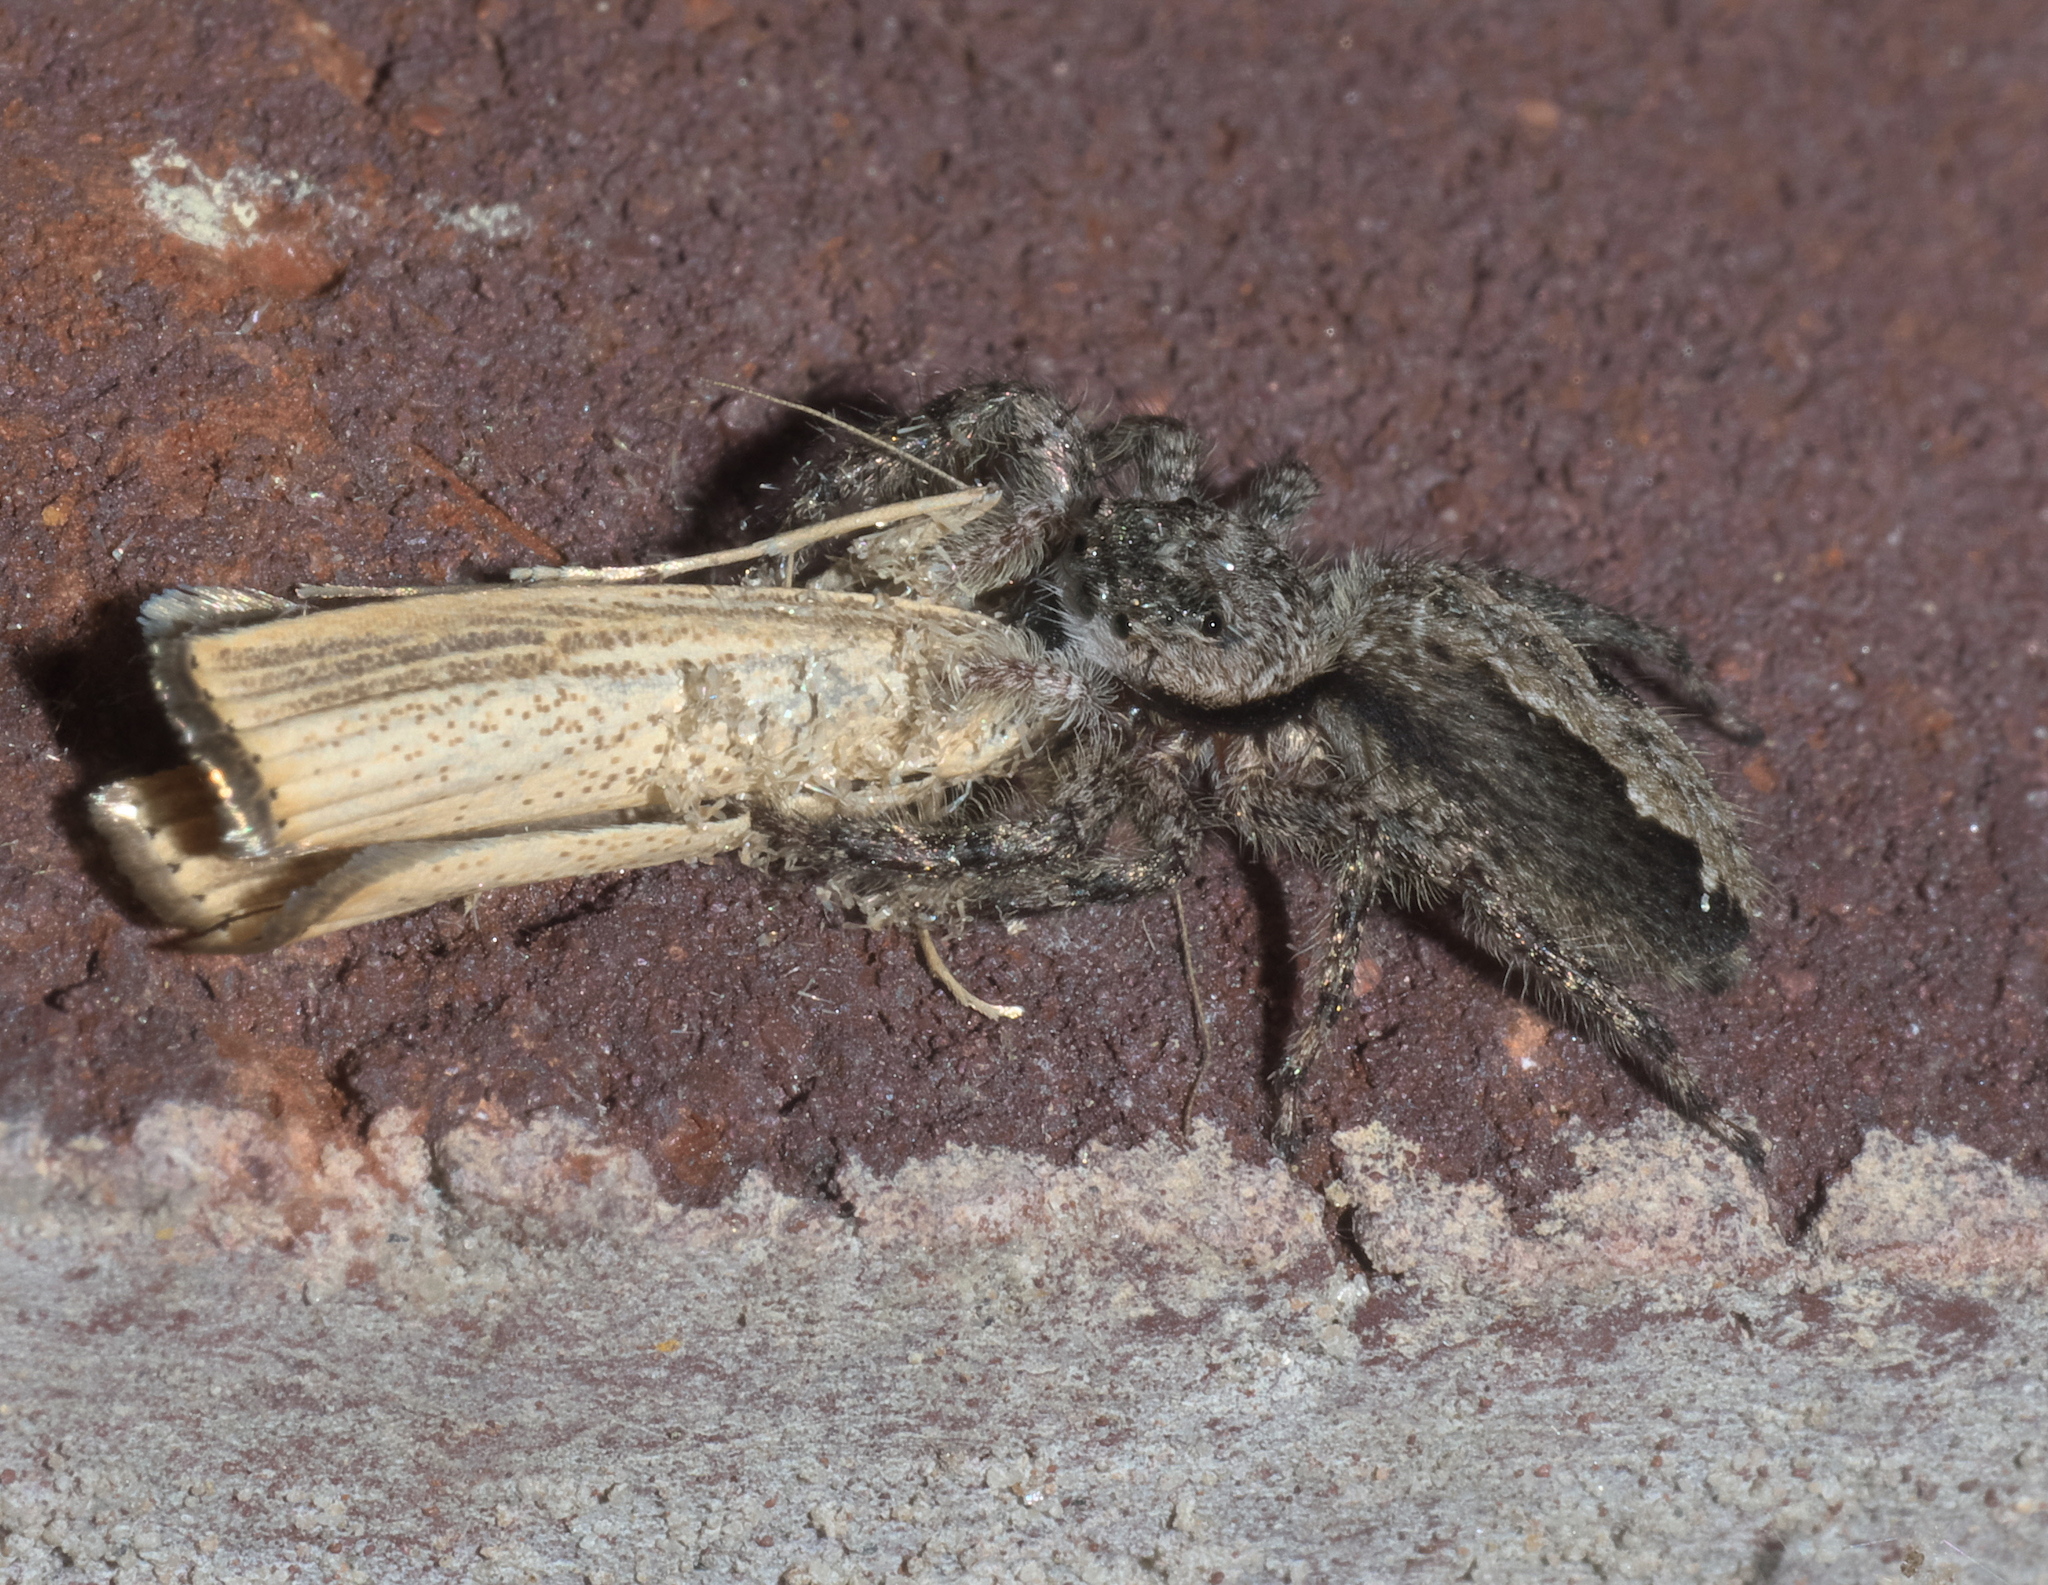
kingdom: Animalia
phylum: Arthropoda
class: Arachnida
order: Araneae
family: Salticidae
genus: Platycryptus
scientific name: Platycryptus undatus
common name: Tan jumping spider
